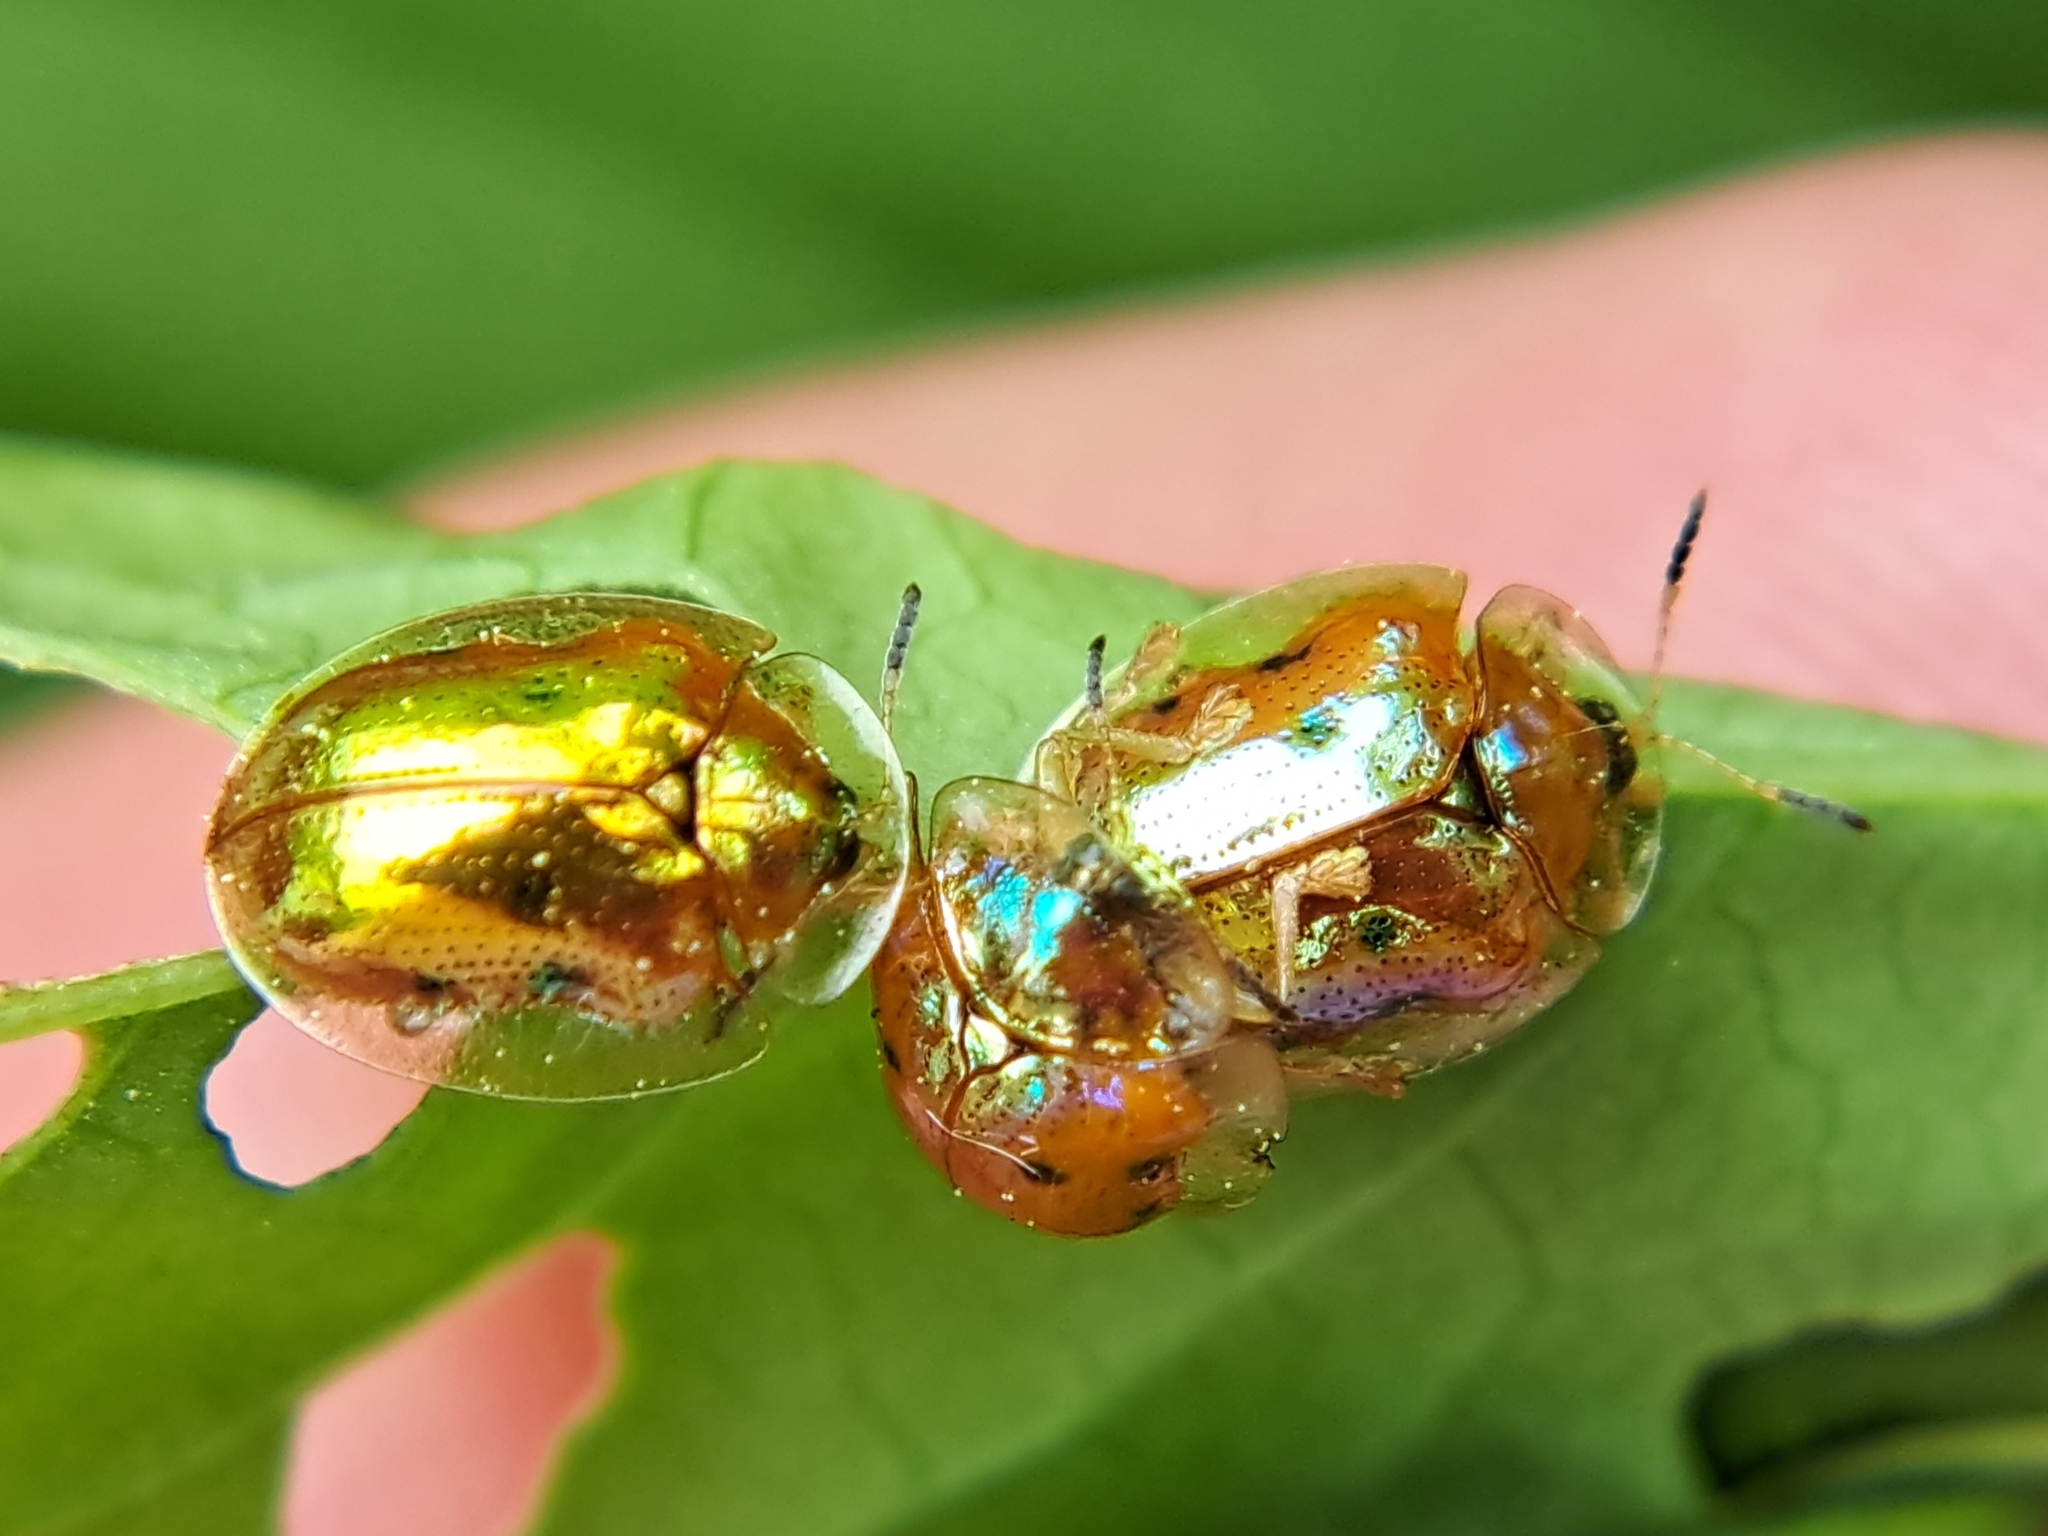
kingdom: Animalia
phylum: Arthropoda
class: Insecta
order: Coleoptera
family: Chrysomelidae
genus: Charidotella
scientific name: Charidotella sexpunctata
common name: Golden tortoise beetle
